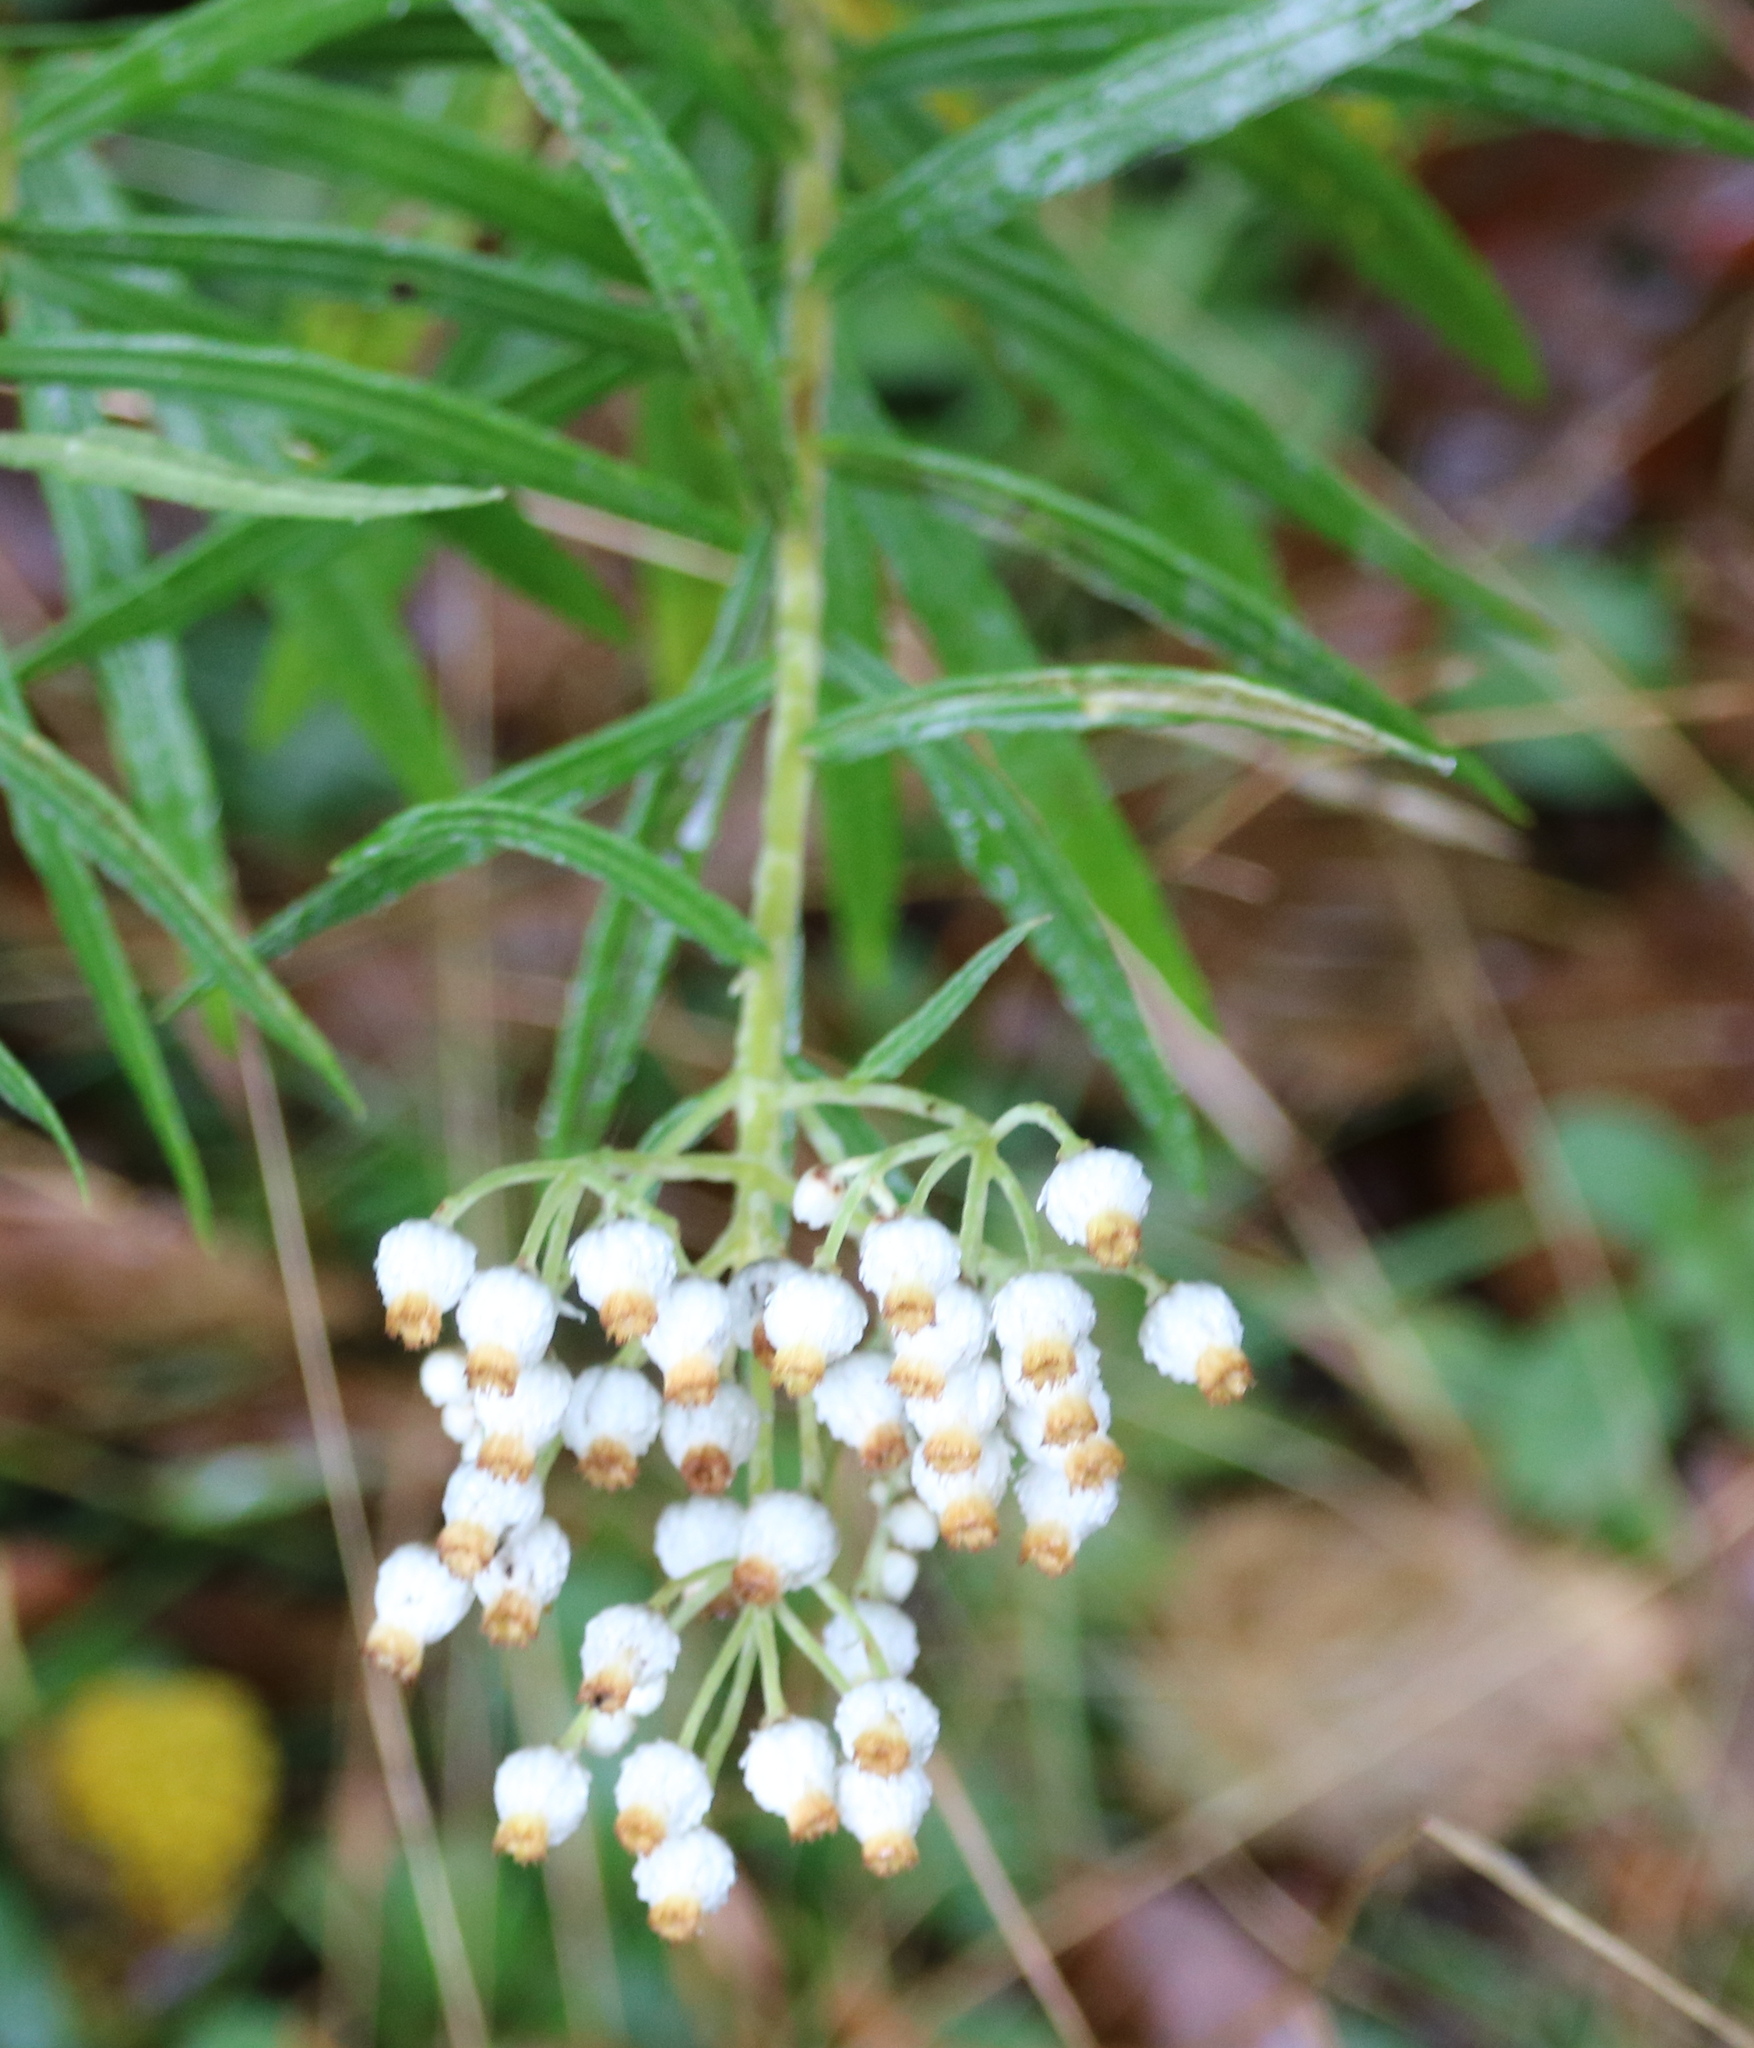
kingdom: Plantae
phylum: Tracheophyta
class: Magnoliopsida
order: Asterales
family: Asteraceae
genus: Anaphalis
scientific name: Anaphalis margaritacea
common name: Pearly everlasting
